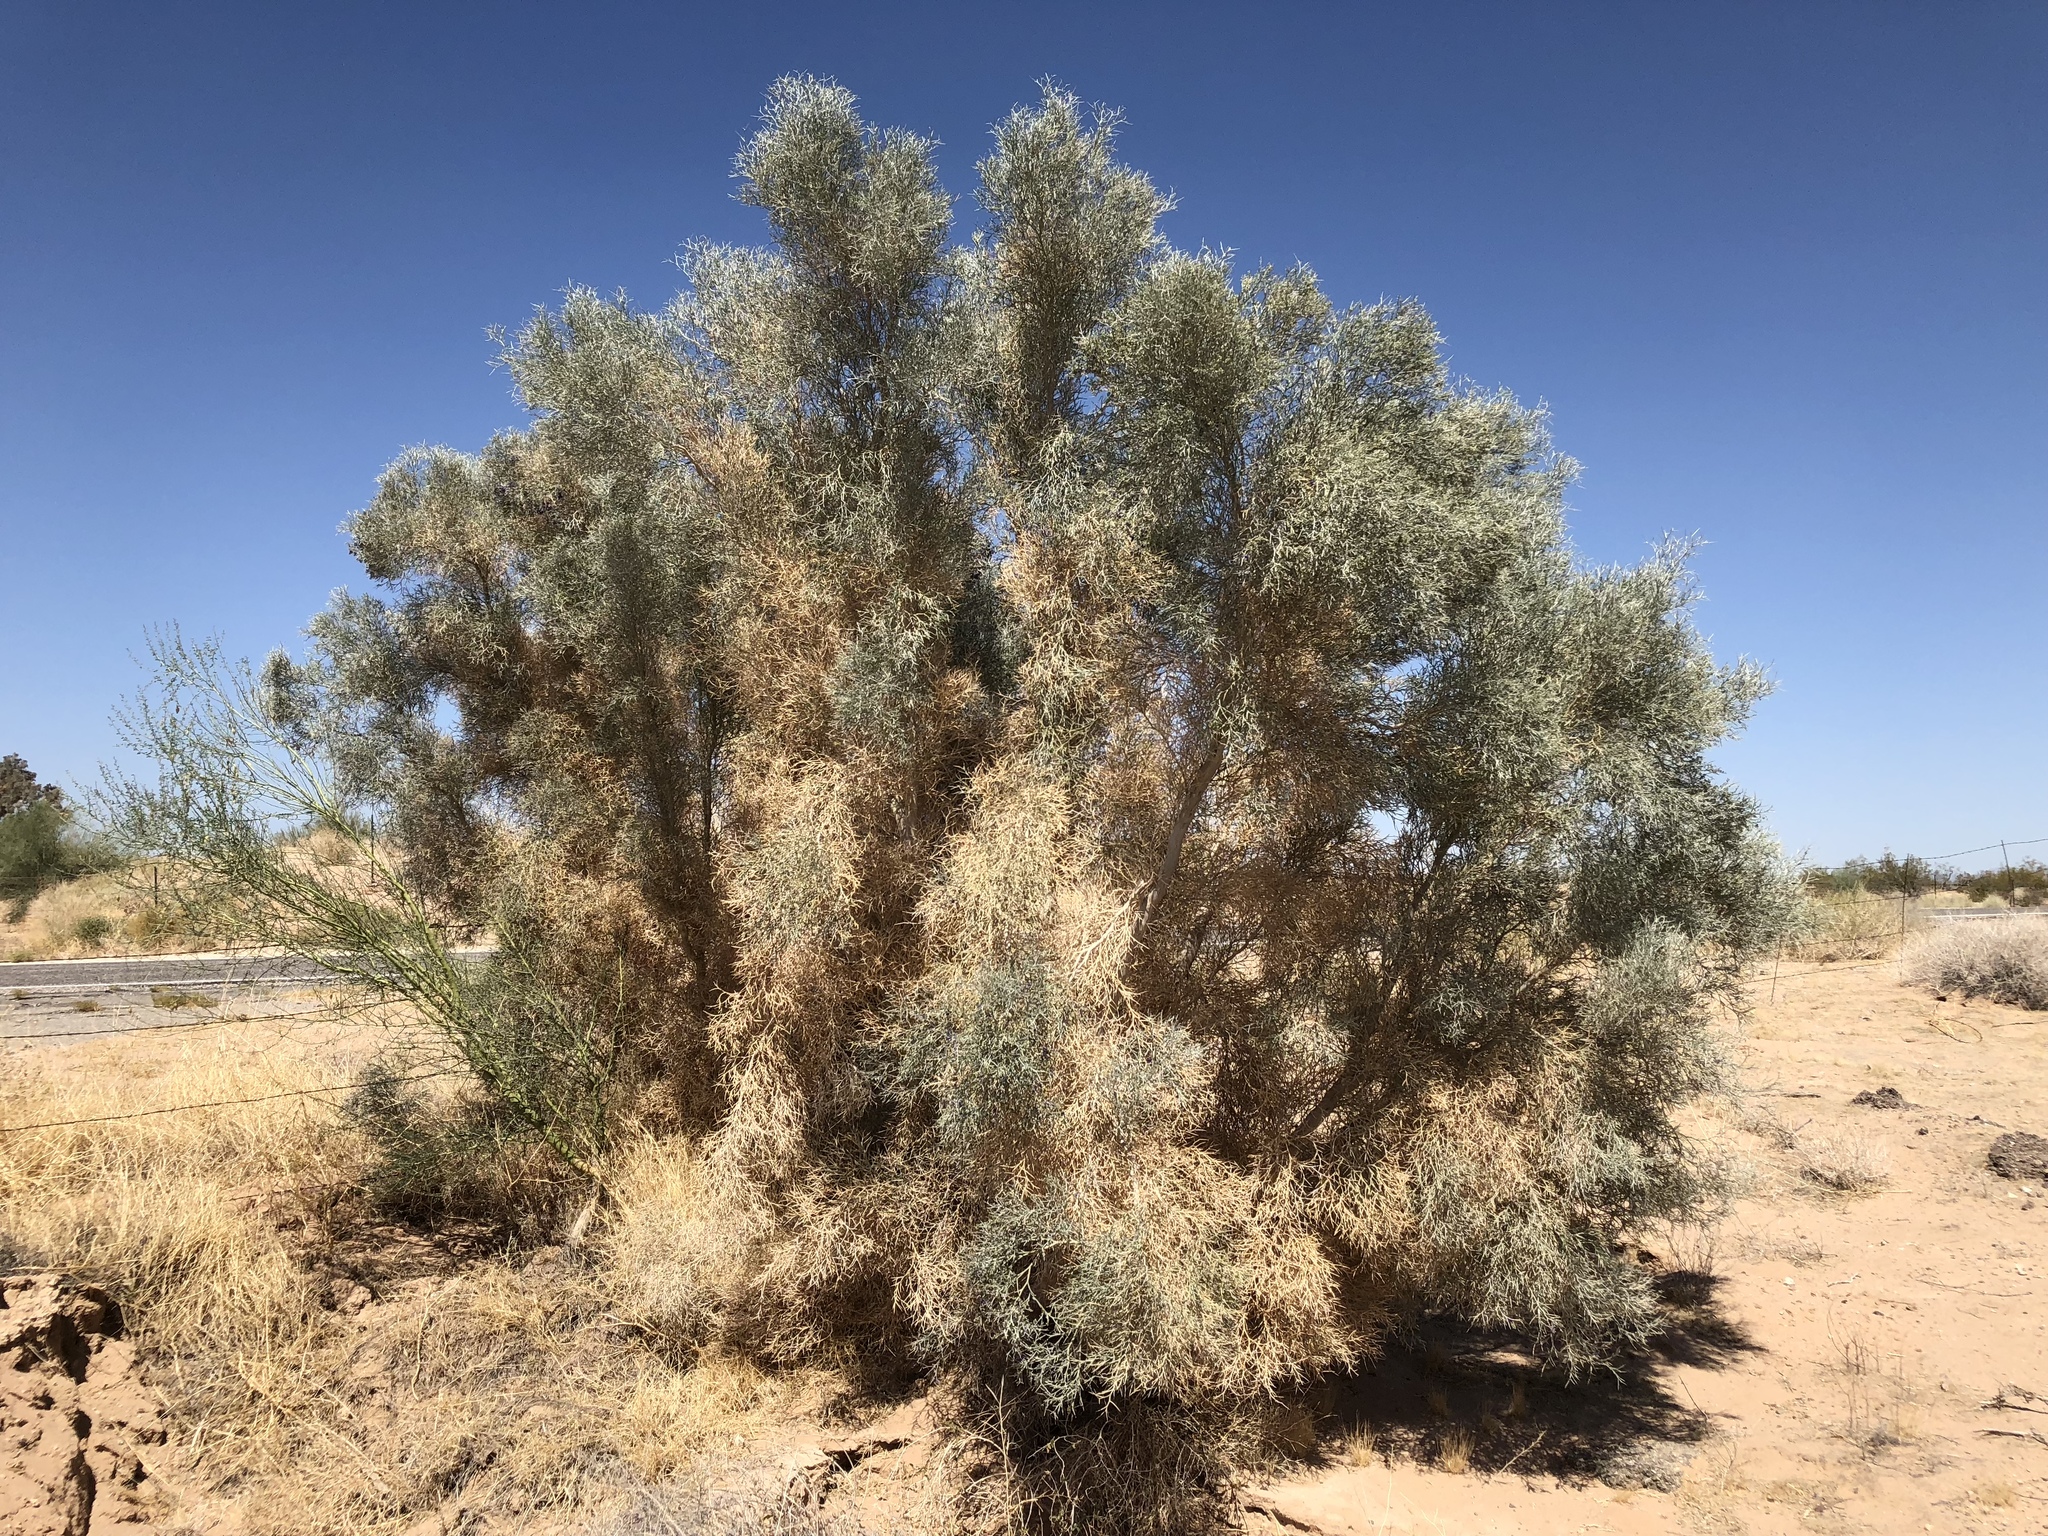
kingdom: Plantae
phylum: Tracheophyta
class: Magnoliopsida
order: Fabales
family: Fabaceae
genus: Psorothamnus
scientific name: Psorothamnus spinosus
